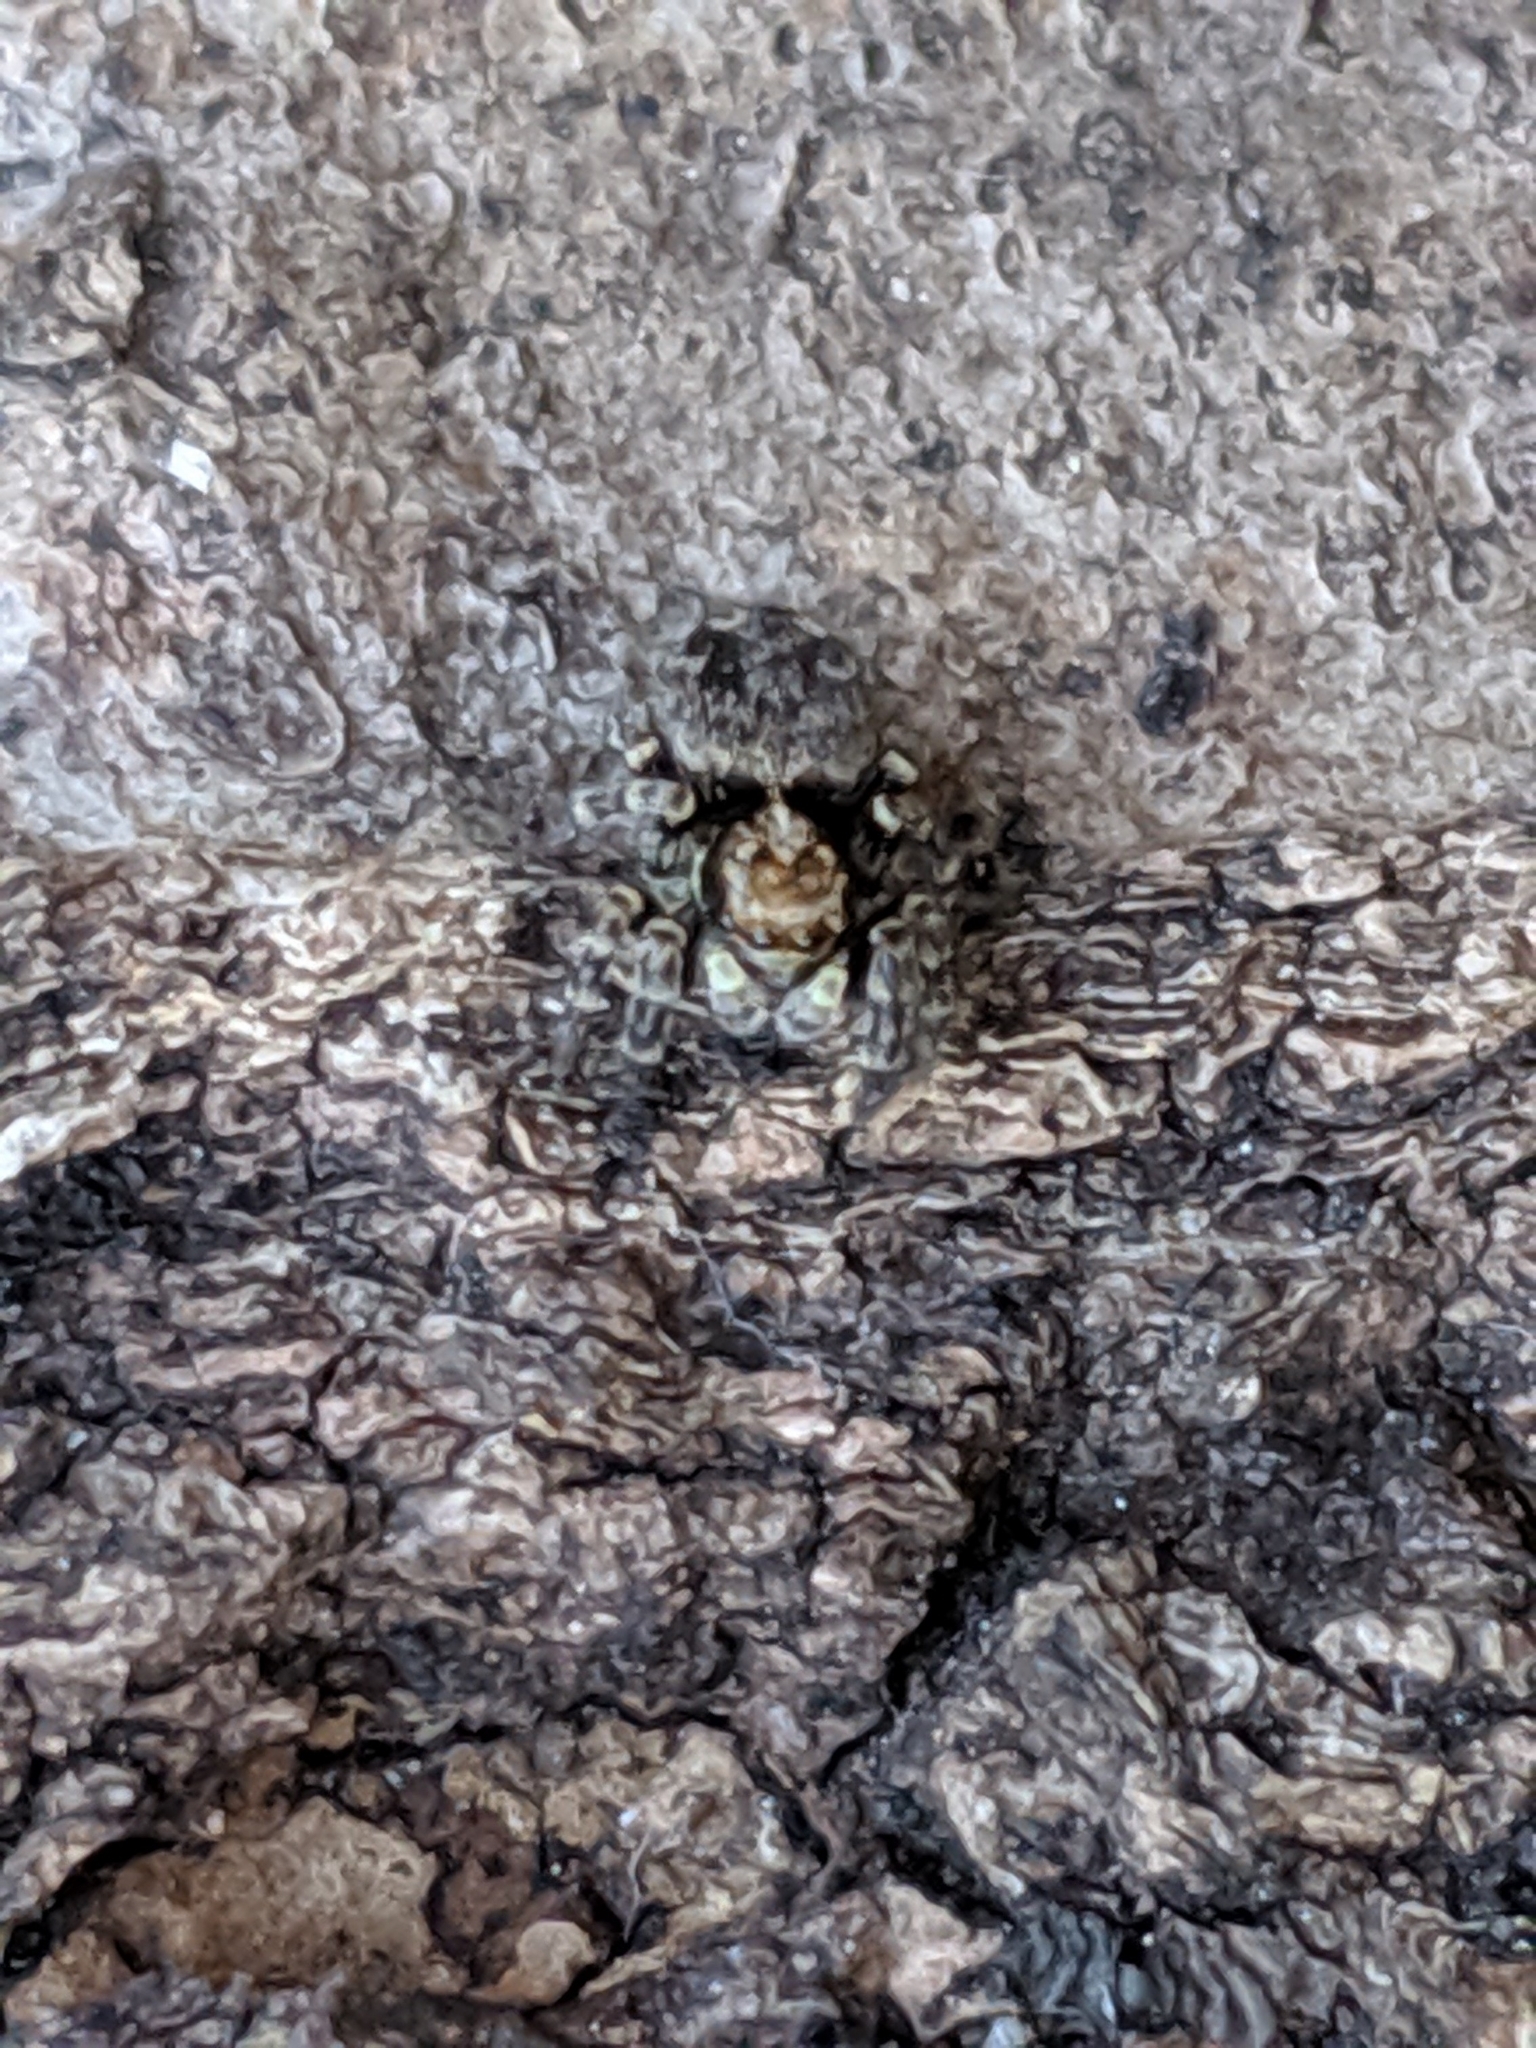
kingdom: Animalia
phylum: Arthropoda
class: Arachnida
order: Araneae
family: Salticidae
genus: Pseudeuophrys
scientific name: Pseudeuophrys
